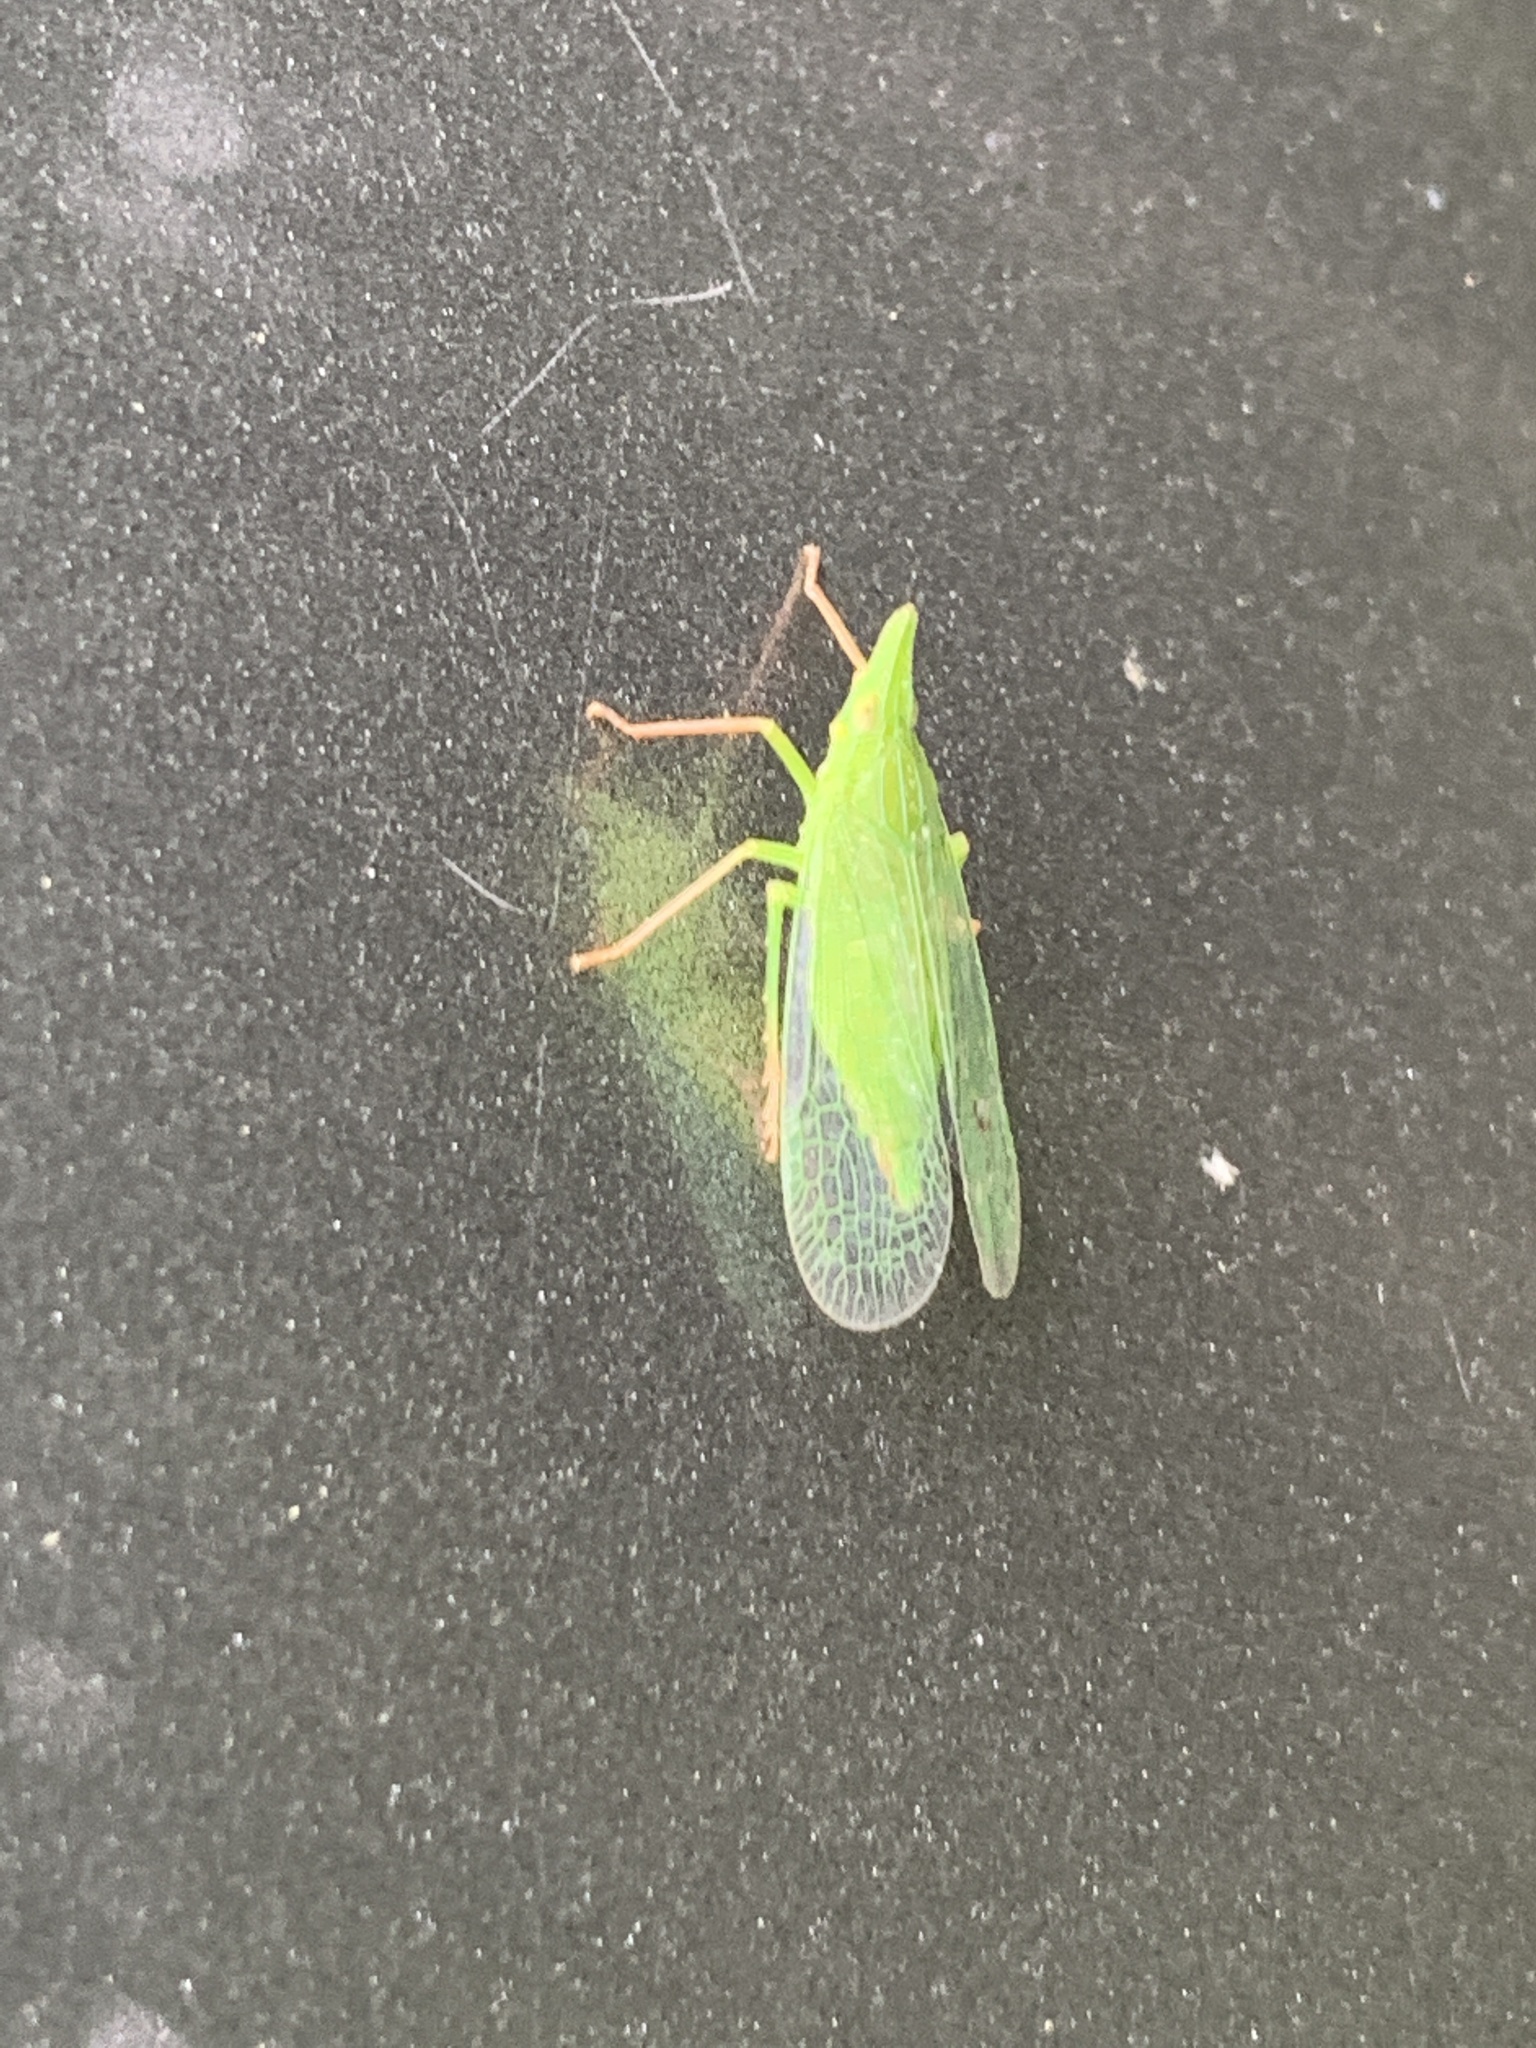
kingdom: Animalia
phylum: Arthropoda
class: Insecta
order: Hemiptera
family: Dictyopharidae
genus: Rhynchomitra
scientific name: Rhynchomitra microrhina
